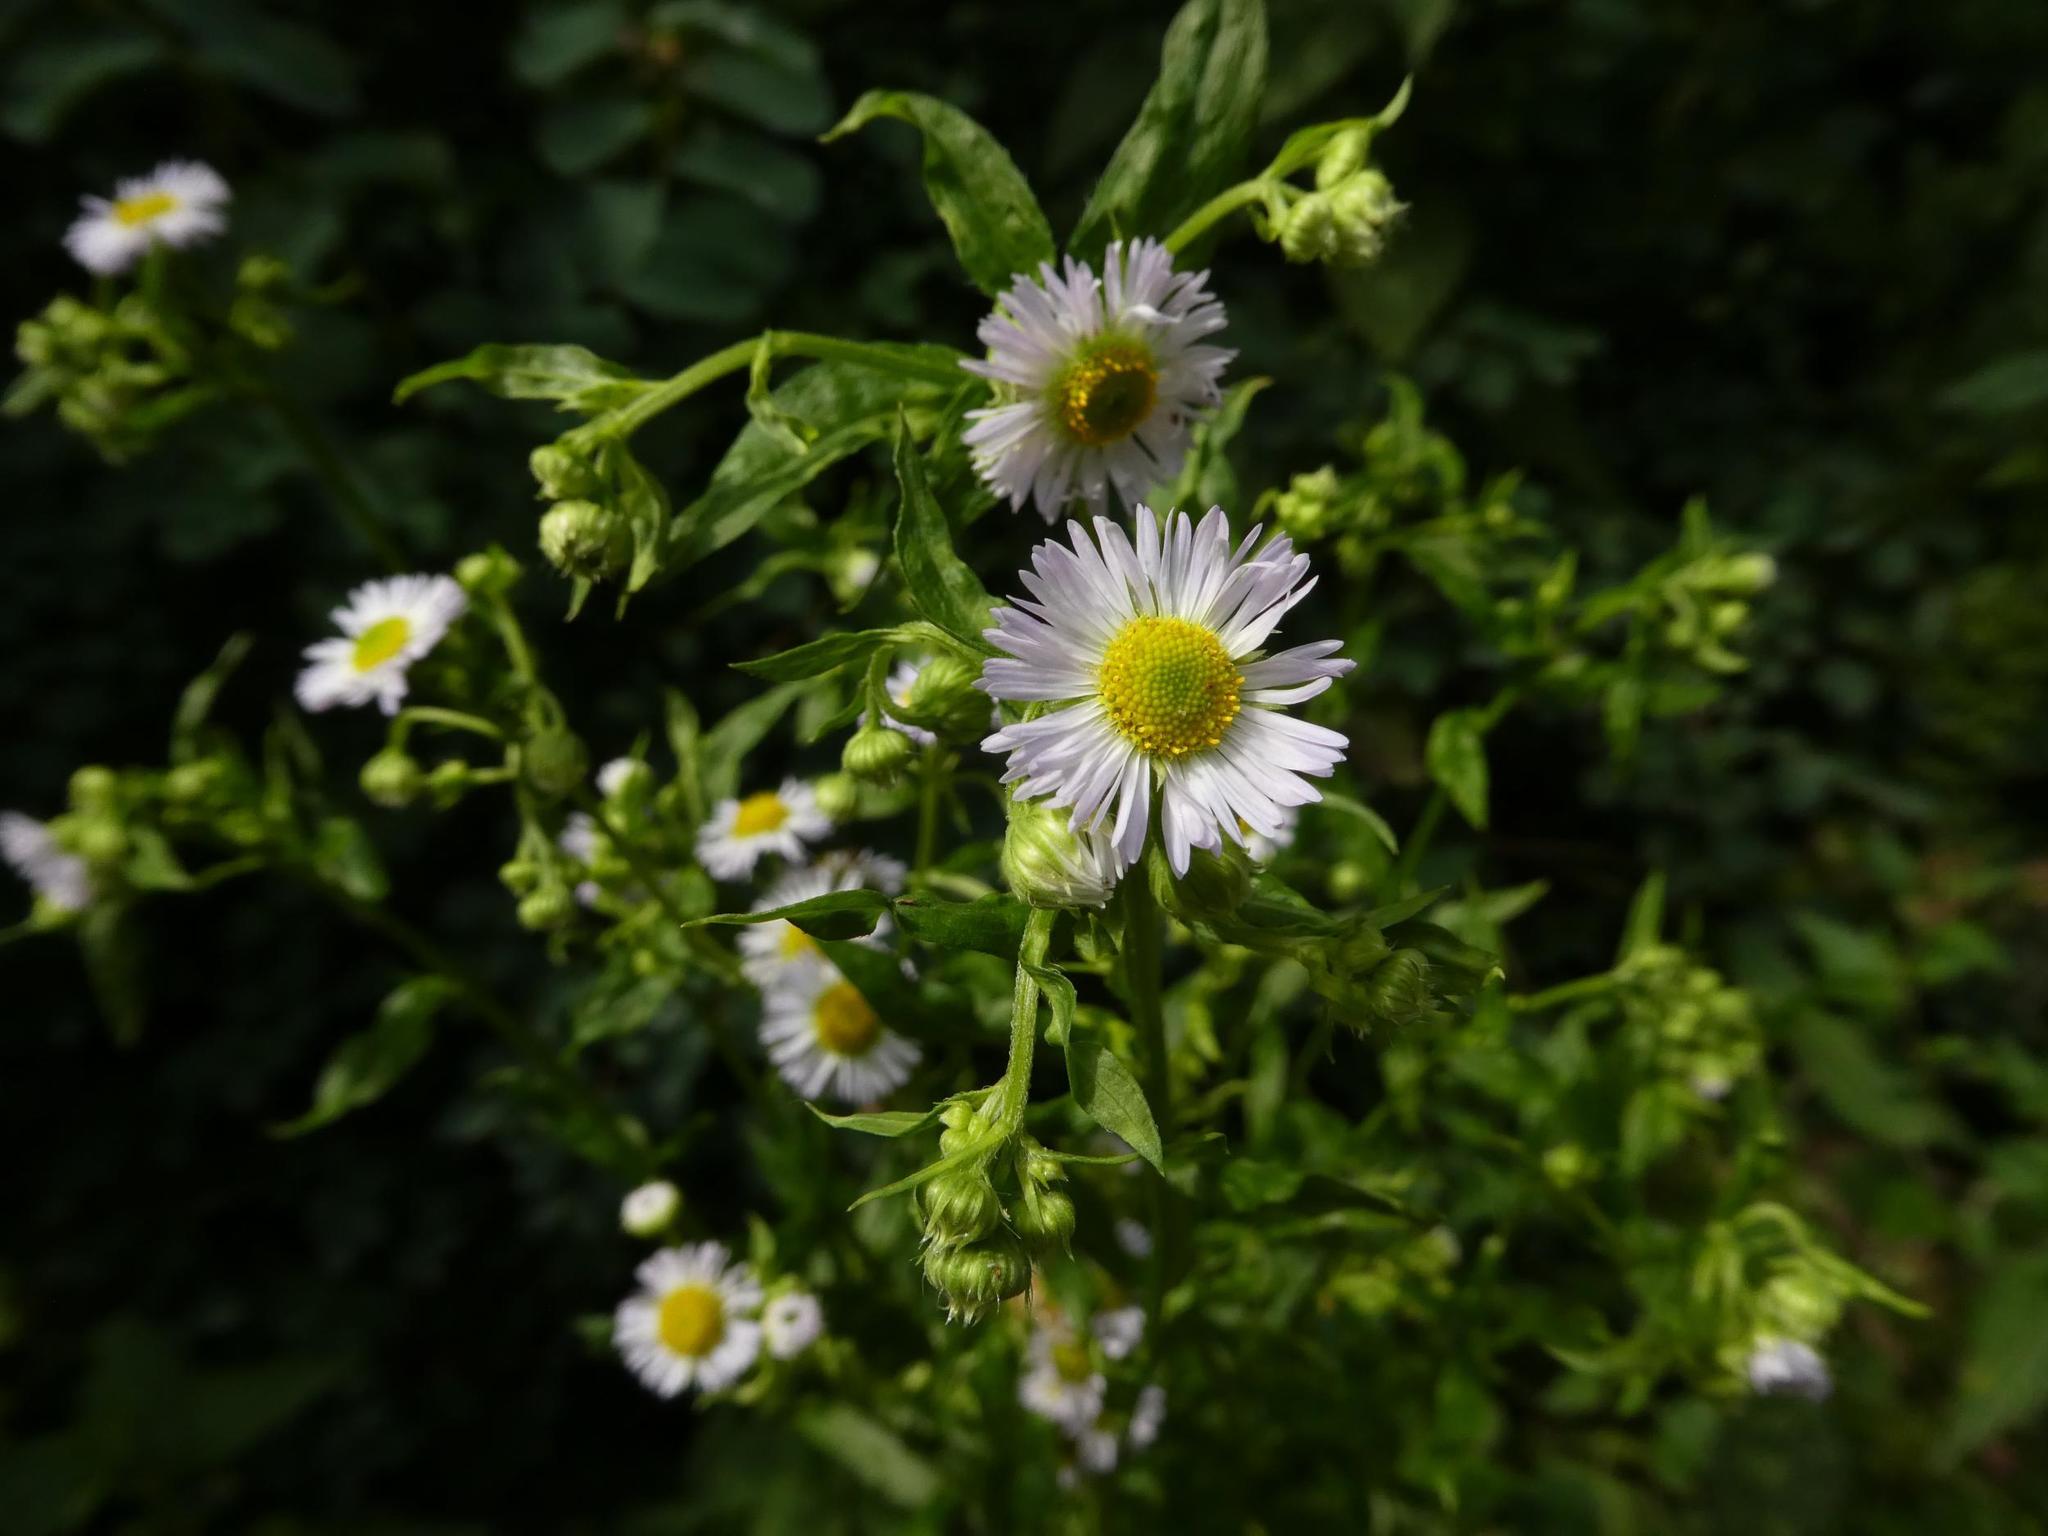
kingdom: Plantae
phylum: Tracheophyta
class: Magnoliopsida
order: Asterales
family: Asteraceae
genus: Erigeron
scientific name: Erigeron annuus
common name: Tall fleabane
